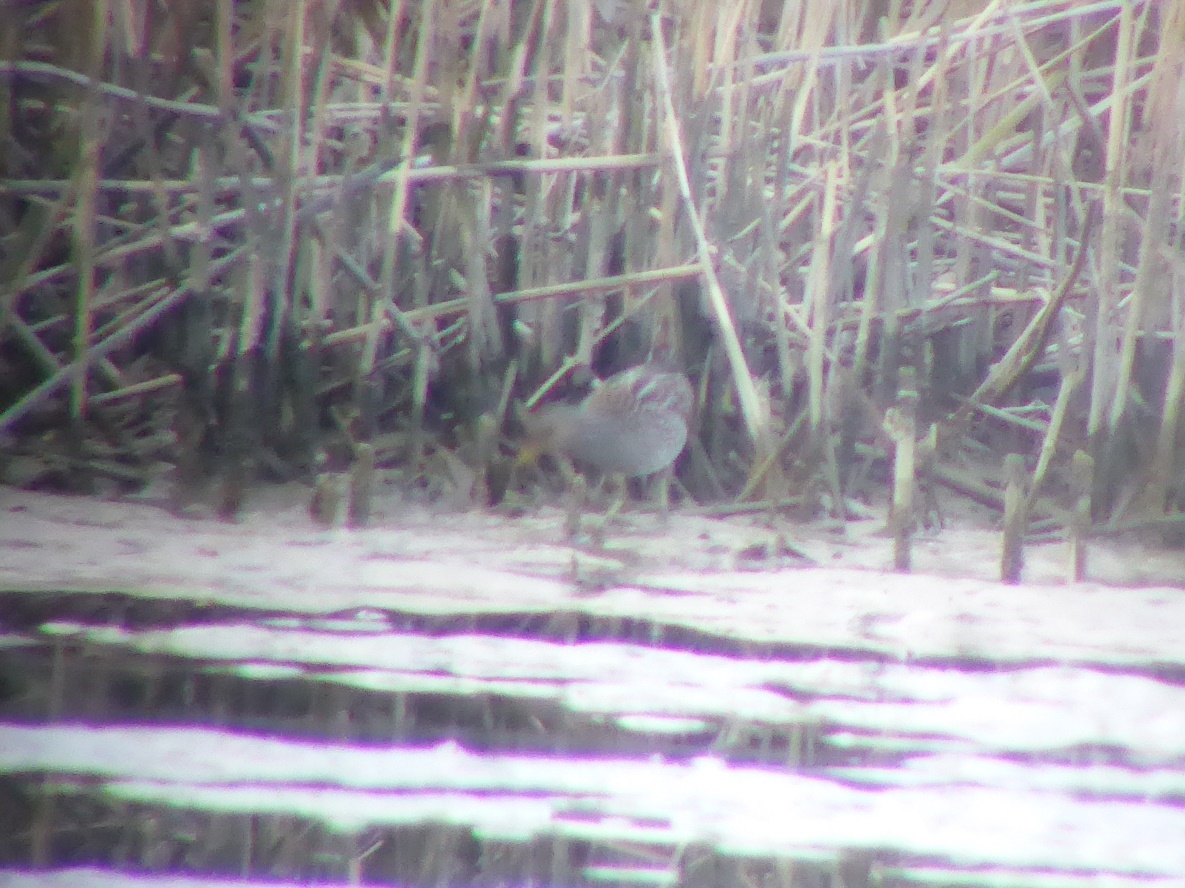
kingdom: Animalia
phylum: Chordata
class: Aves
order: Gruiformes
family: Rallidae
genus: Porzana
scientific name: Porzana porzana
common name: Spotted crake
